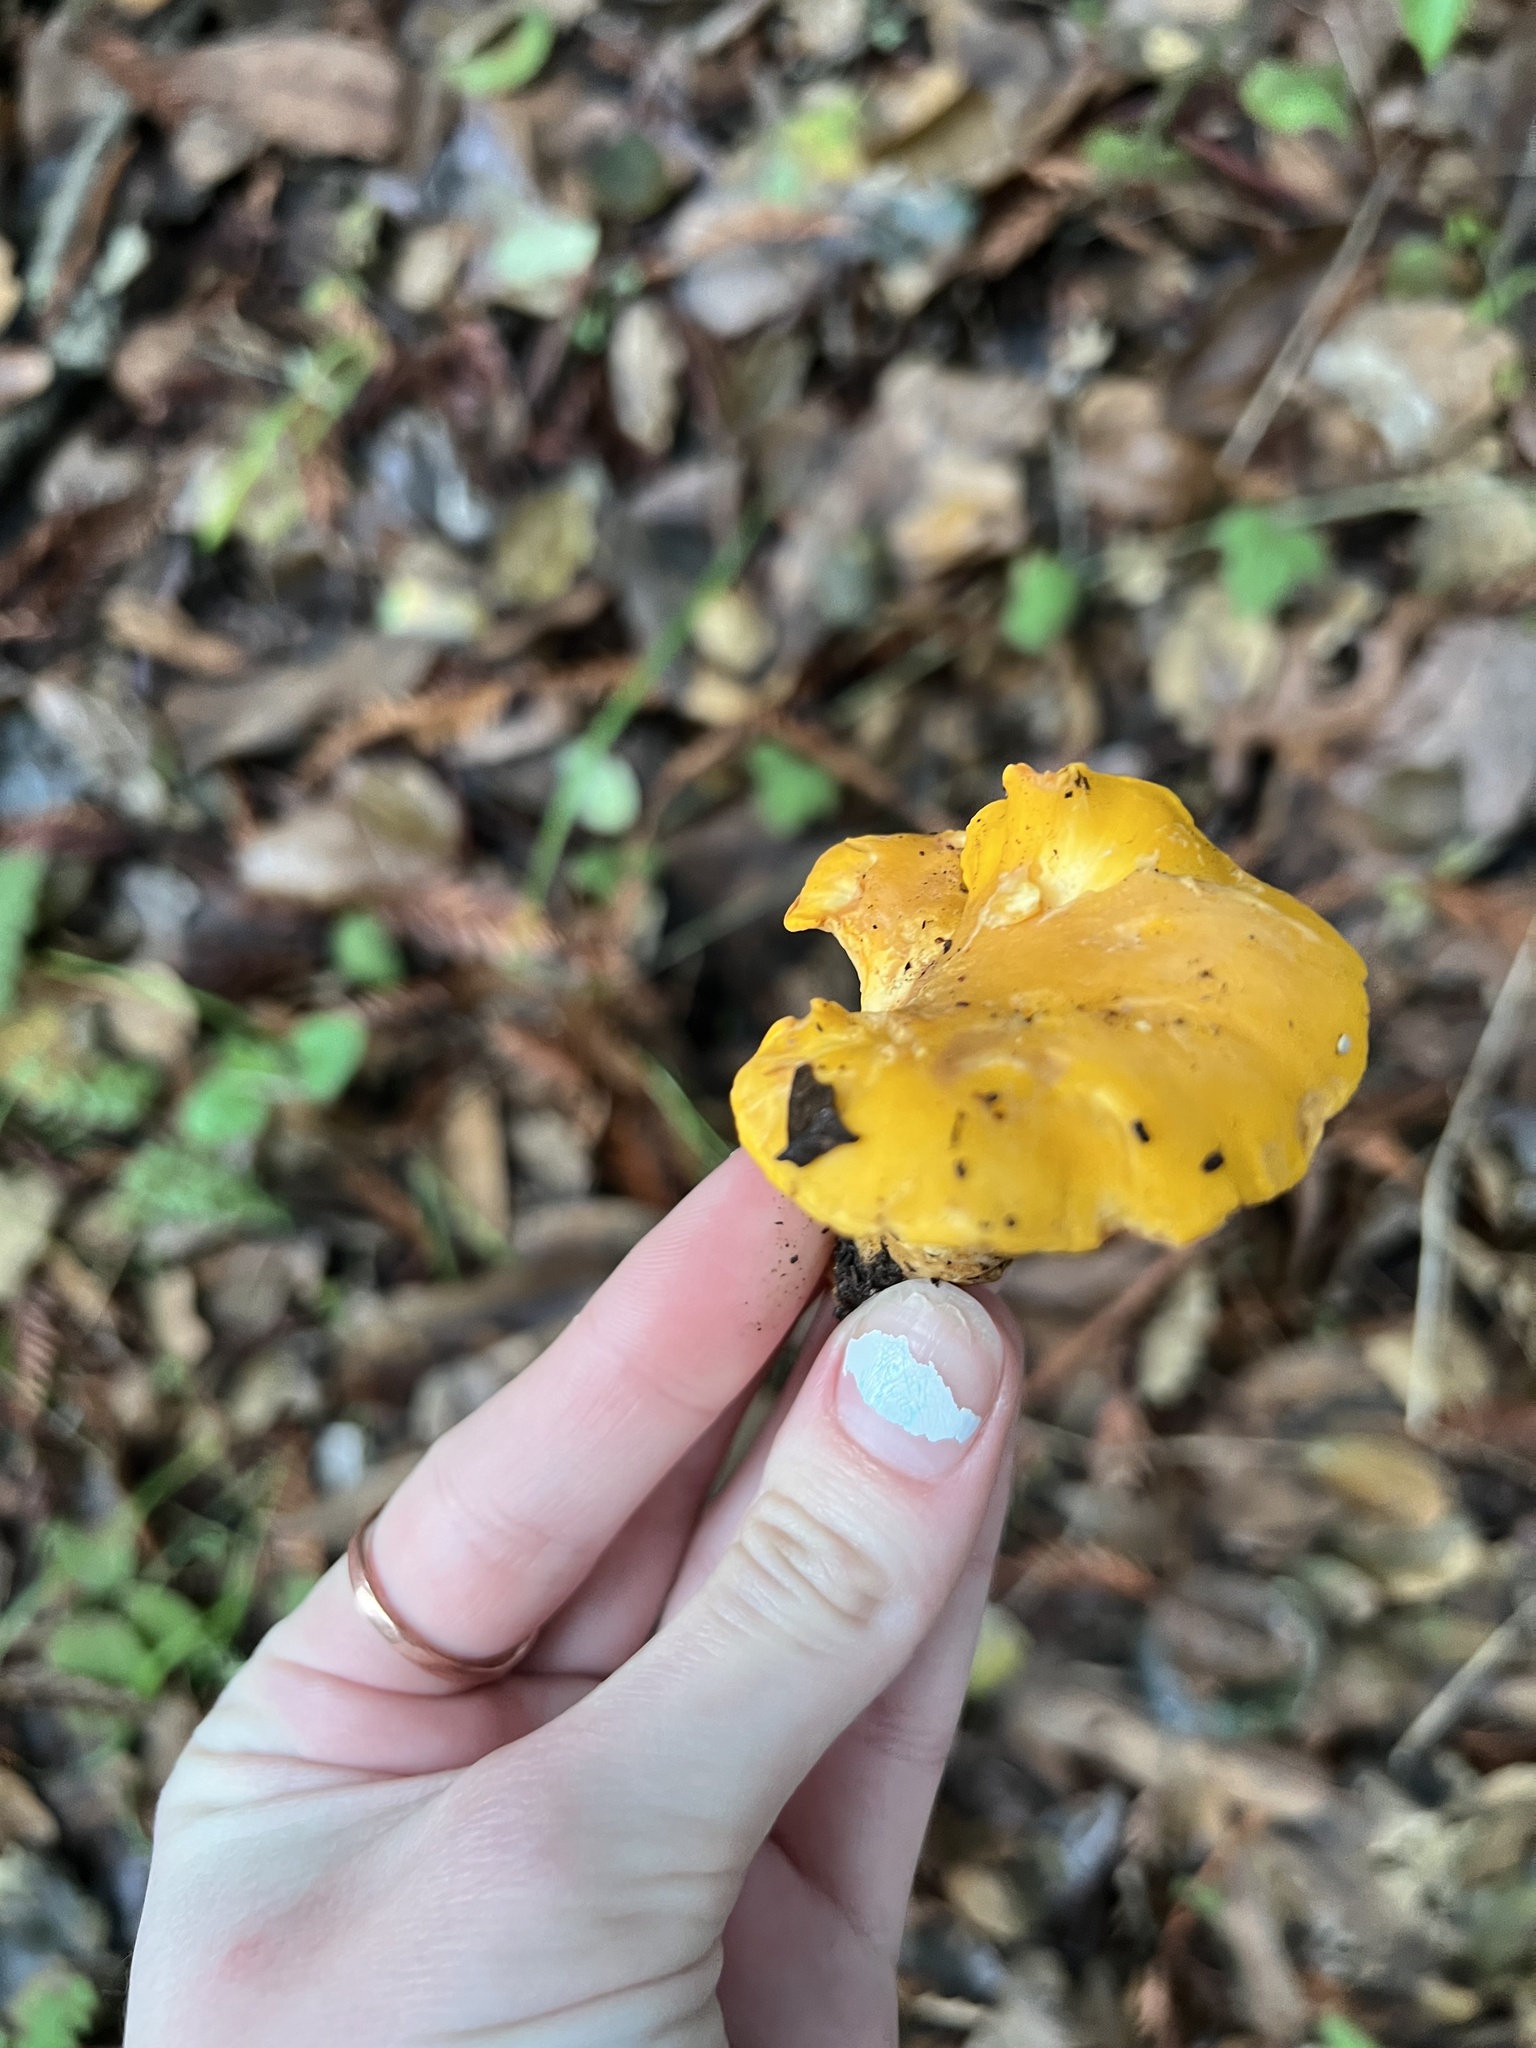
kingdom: Fungi
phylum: Basidiomycota
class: Agaricomycetes
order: Cantharellales
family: Hydnaceae
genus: Cantharellus
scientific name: Cantharellus californicus
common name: California golden chanterelle
